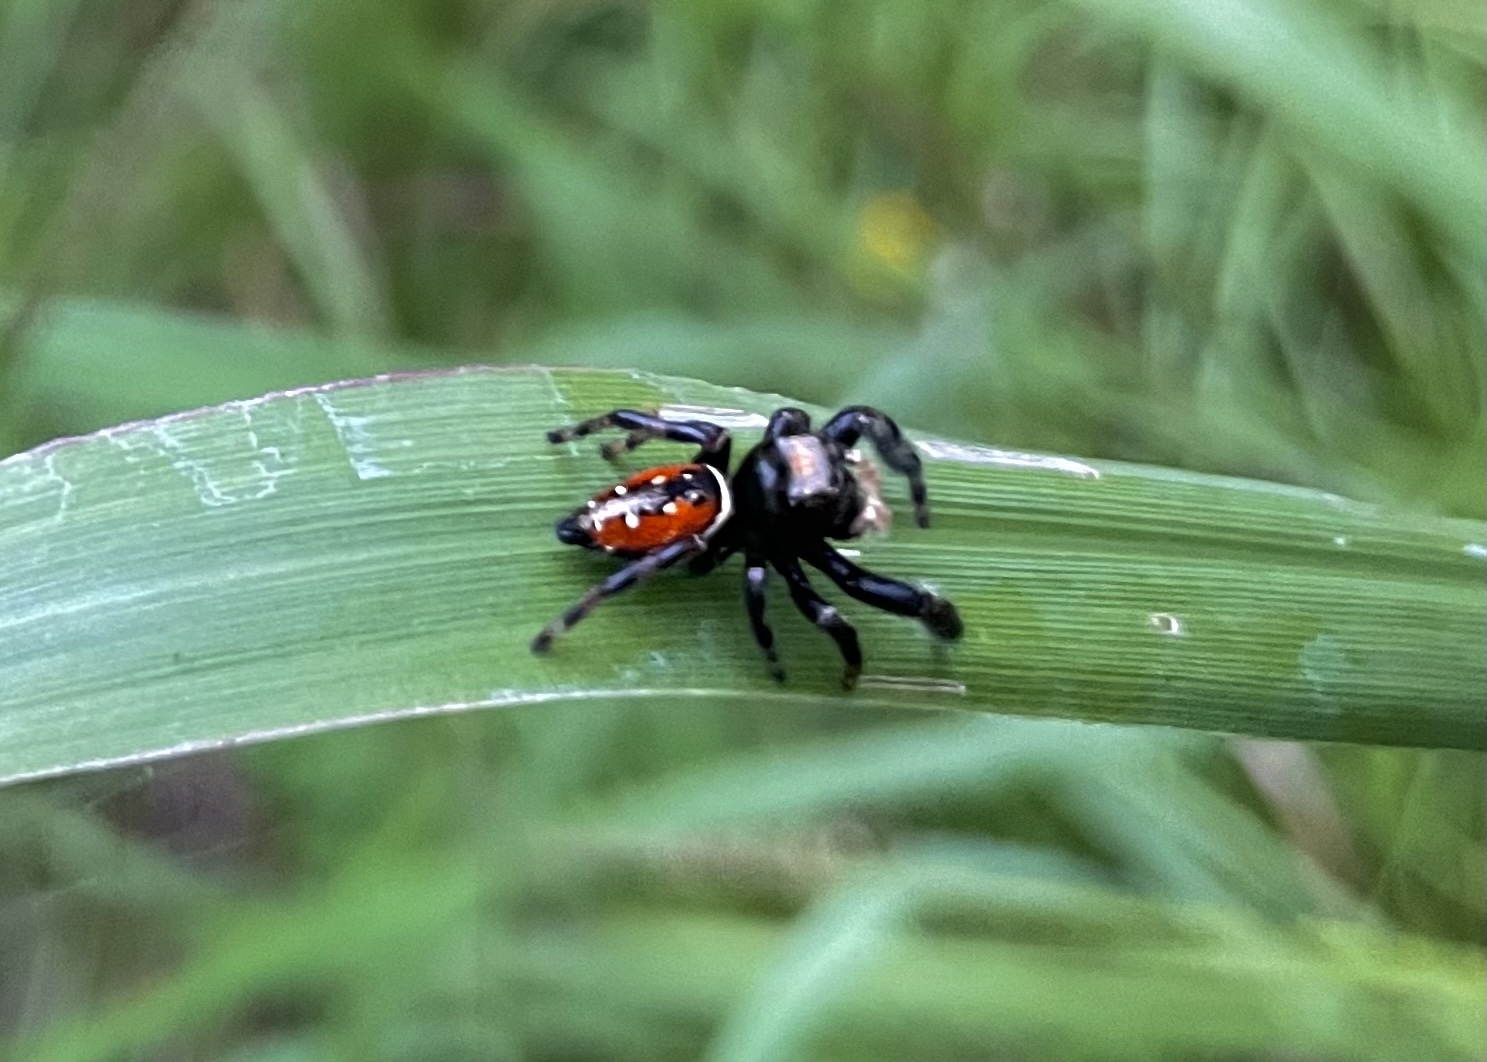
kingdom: Animalia
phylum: Arthropoda
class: Arachnida
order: Araneae
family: Salticidae
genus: Phidippus
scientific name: Phidippus clarus
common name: Brilliant jumping spider
